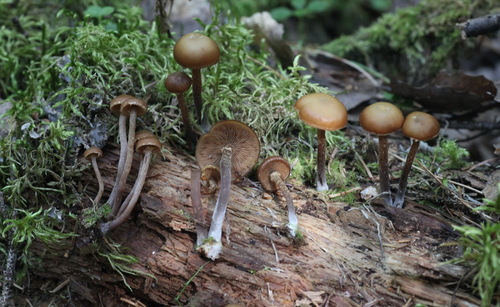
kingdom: Fungi
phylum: Basidiomycota
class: Agaricomycetes
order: Agaricales
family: Strophariaceae
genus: Pholiota
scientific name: Pholiota lignicola
